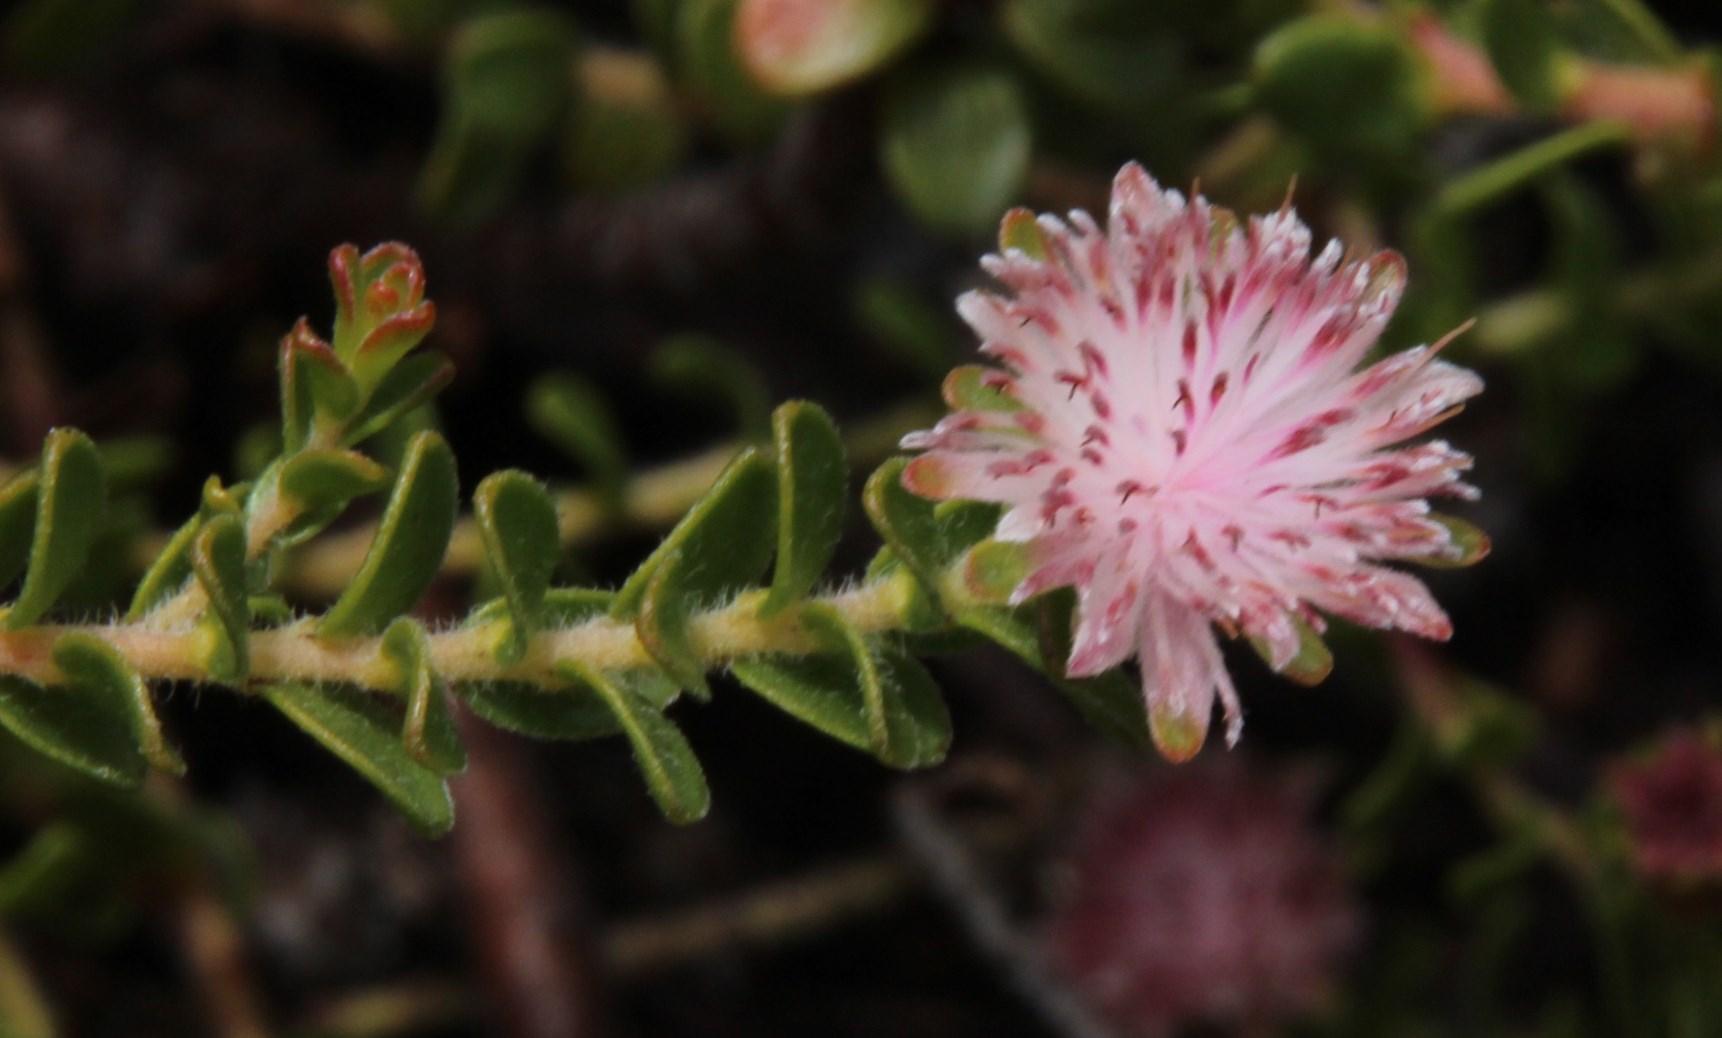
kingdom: Plantae
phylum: Tracheophyta
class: Magnoliopsida
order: Proteales
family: Proteaceae
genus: Diastella
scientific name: Diastella divaricata
